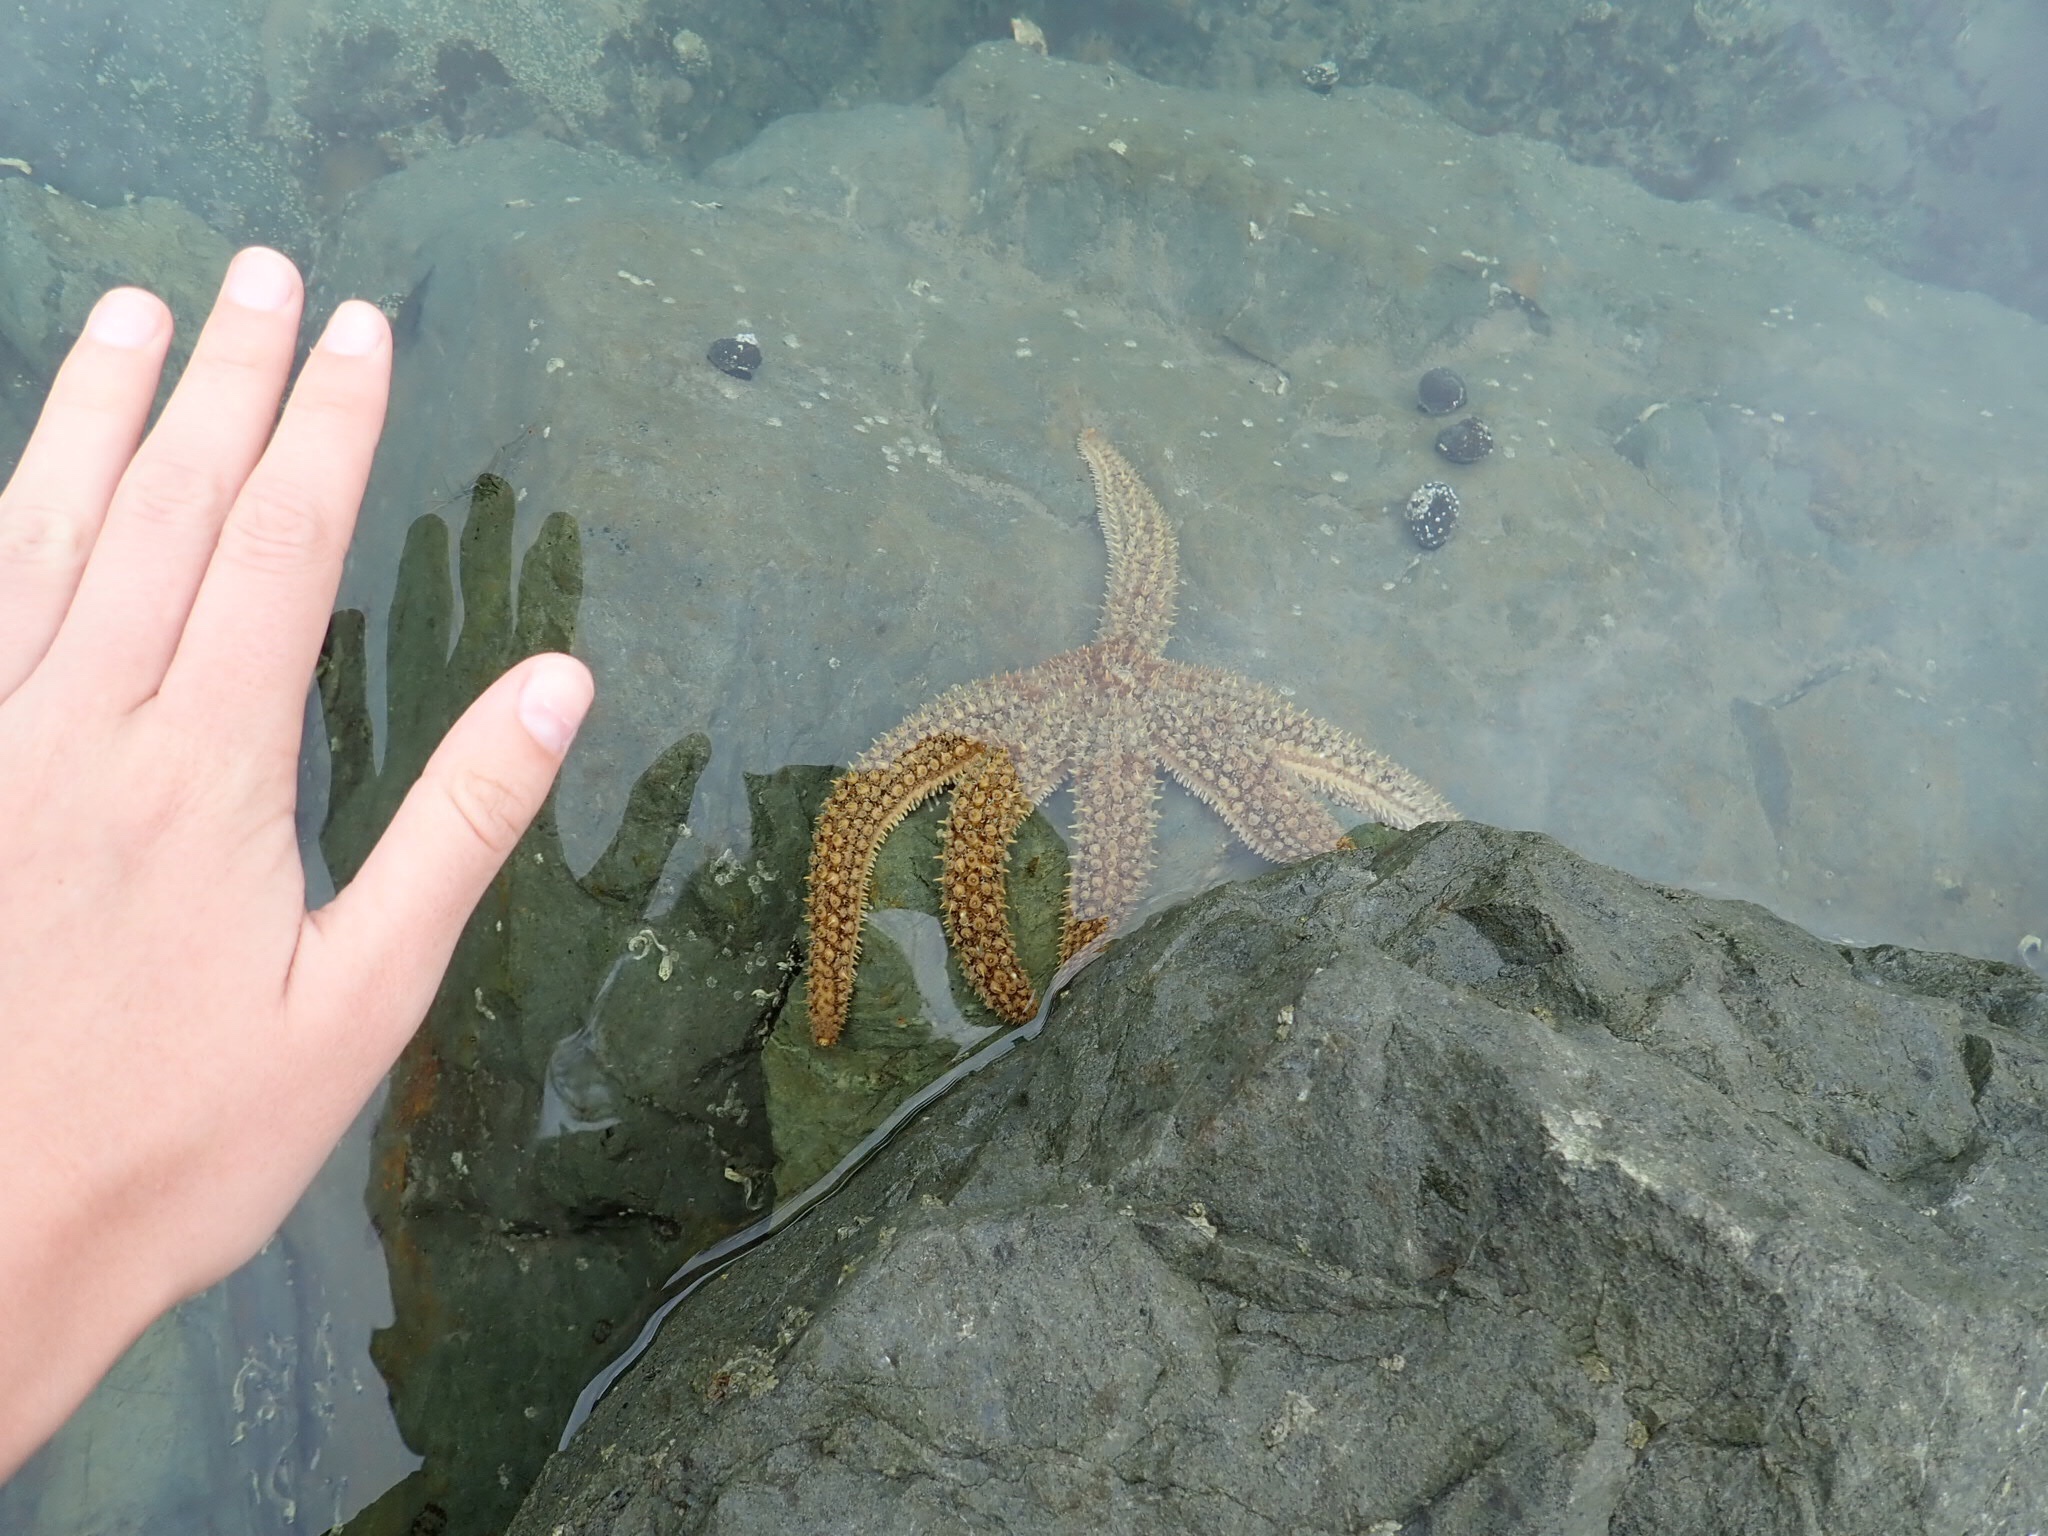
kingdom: Animalia
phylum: Echinodermata
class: Asteroidea
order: Forcipulatida
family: Asteriidae
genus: Coscinasterias
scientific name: Coscinasterias muricata
